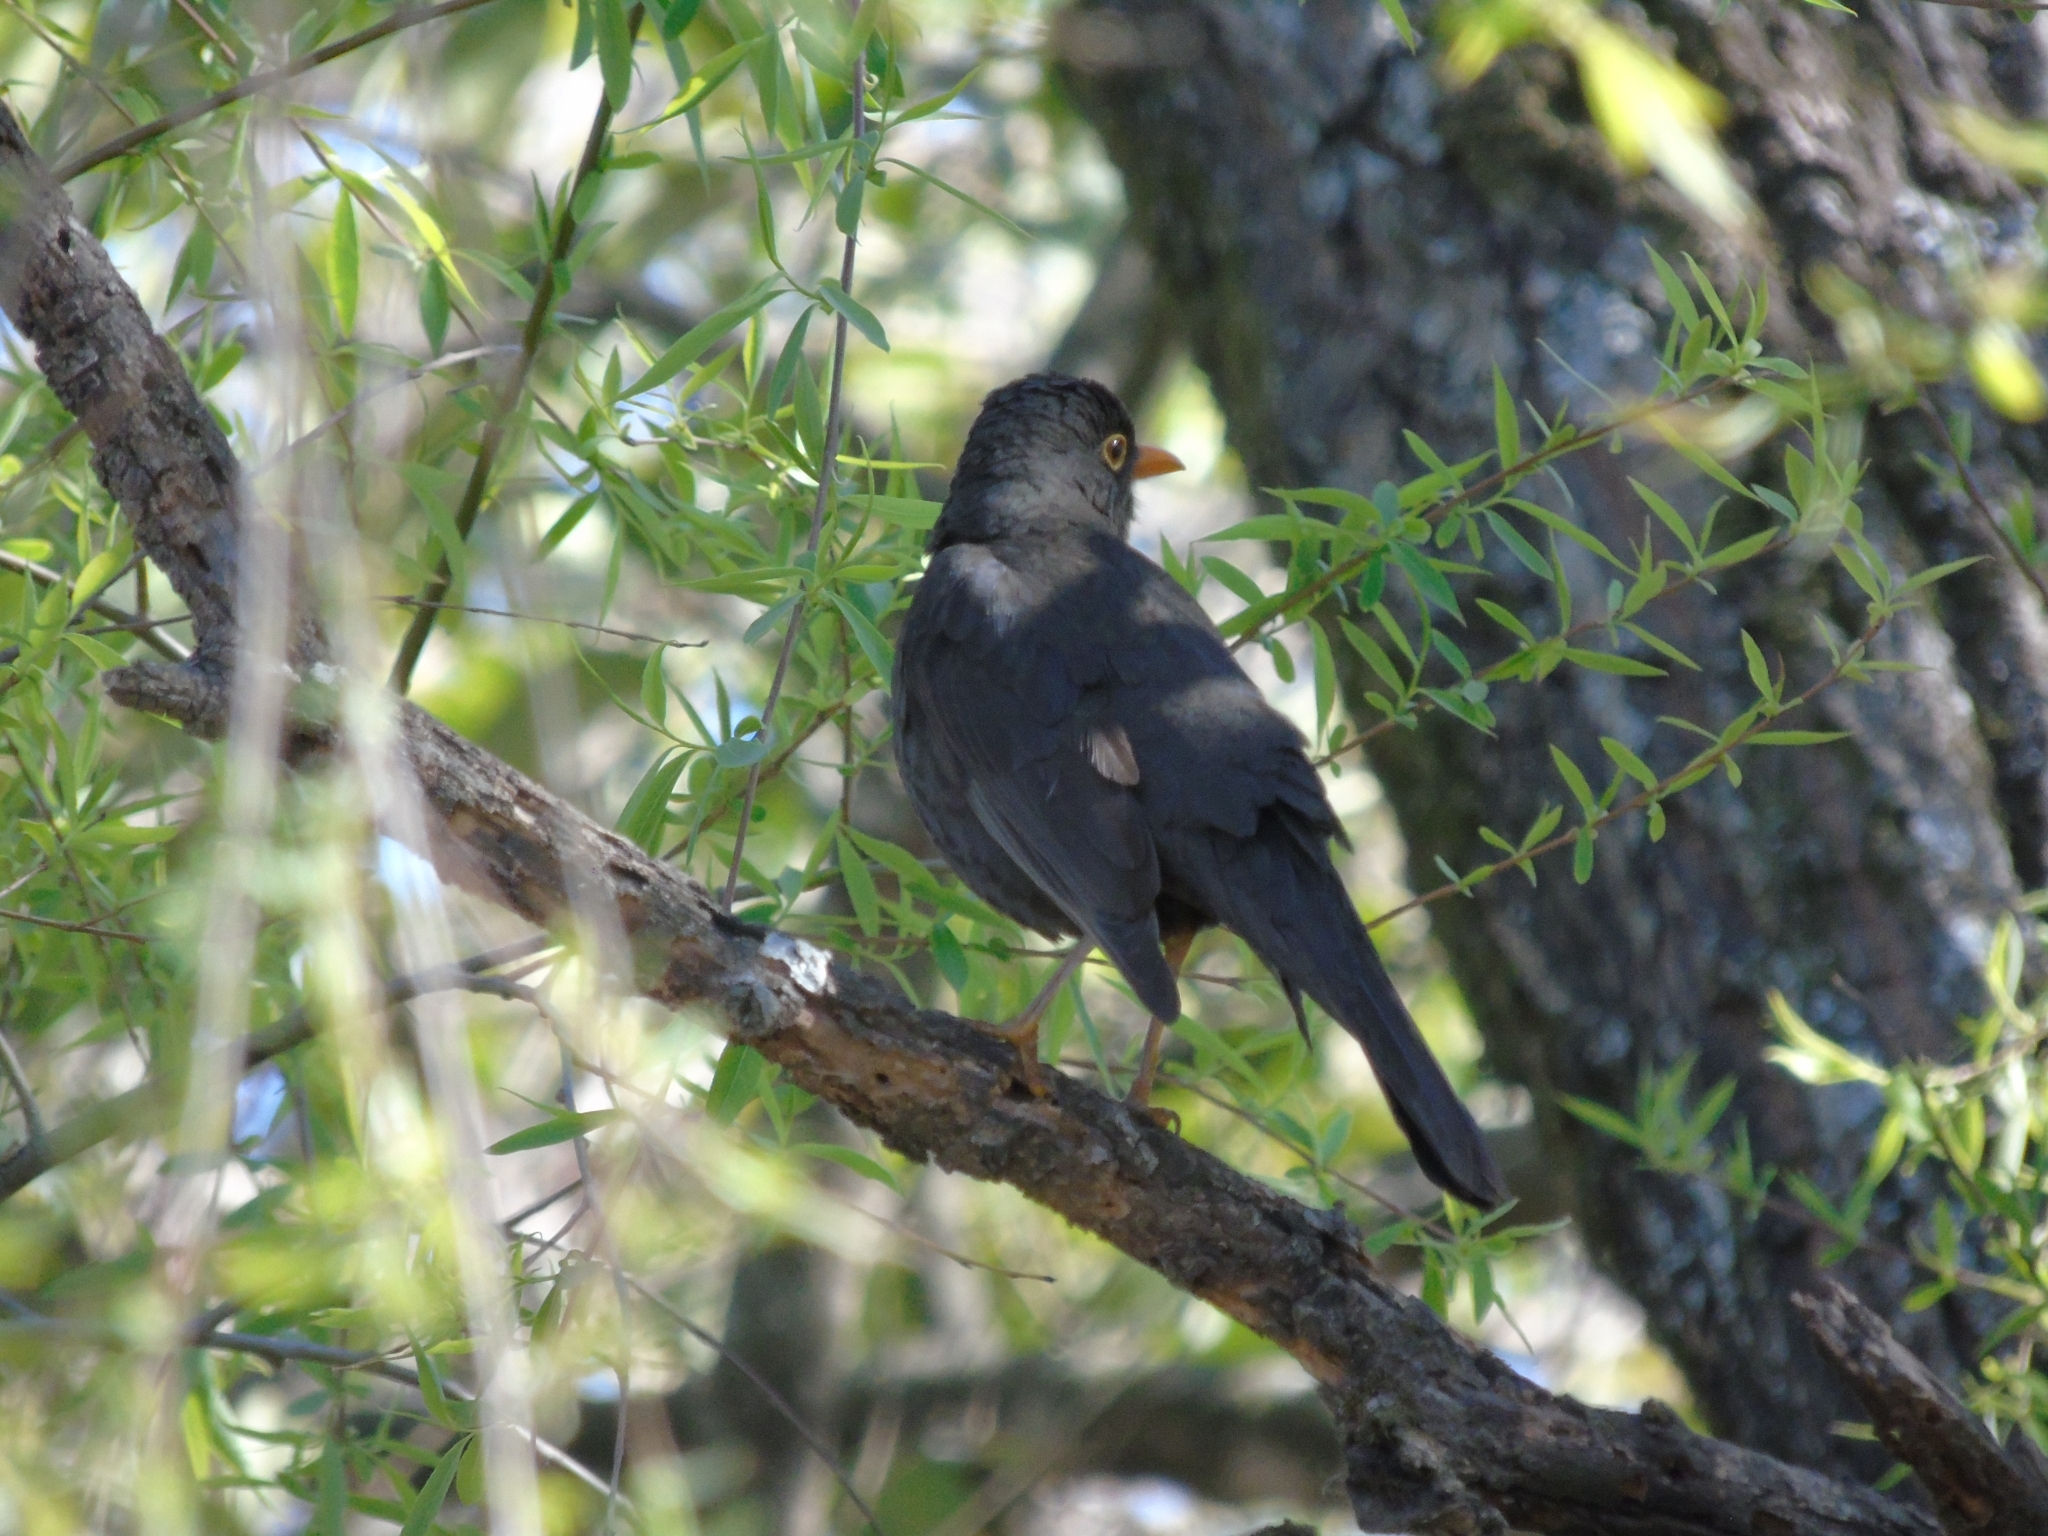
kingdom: Animalia
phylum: Chordata
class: Aves
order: Passeriformes
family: Turdidae
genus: Turdus
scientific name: Turdus chiguanco
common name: Chiguanco thrush
